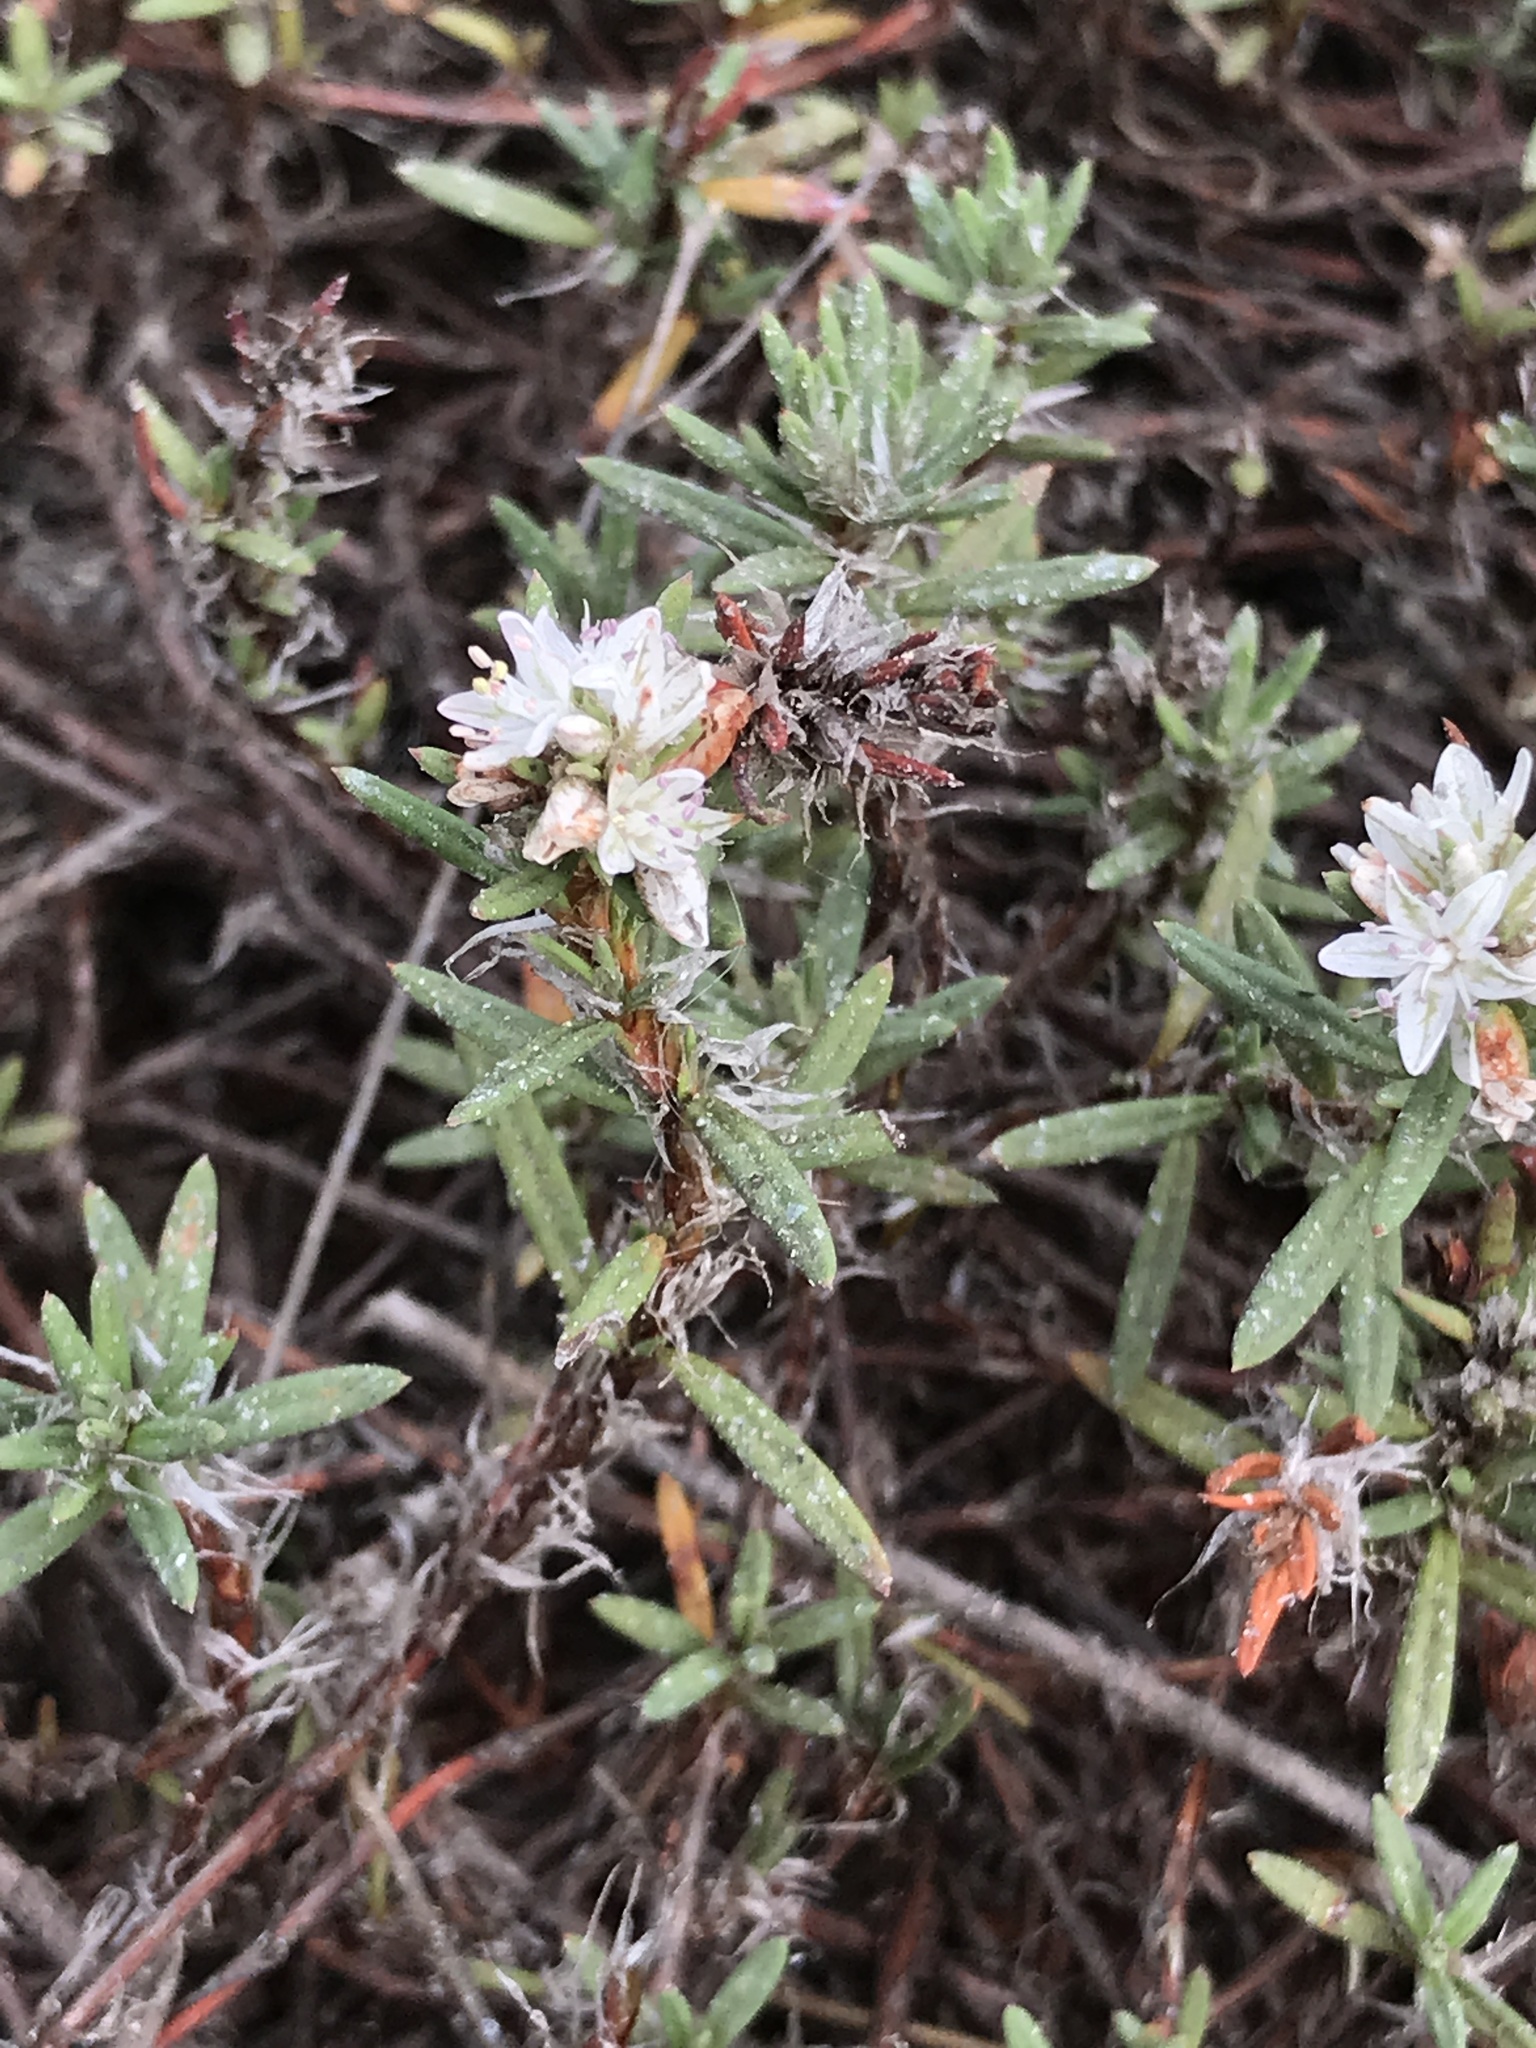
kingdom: Plantae
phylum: Tracheophyta
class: Magnoliopsida
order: Caryophyllales
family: Polygonaceae
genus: Polygonum
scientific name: Polygonum paronychia
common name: Dune knotweed
